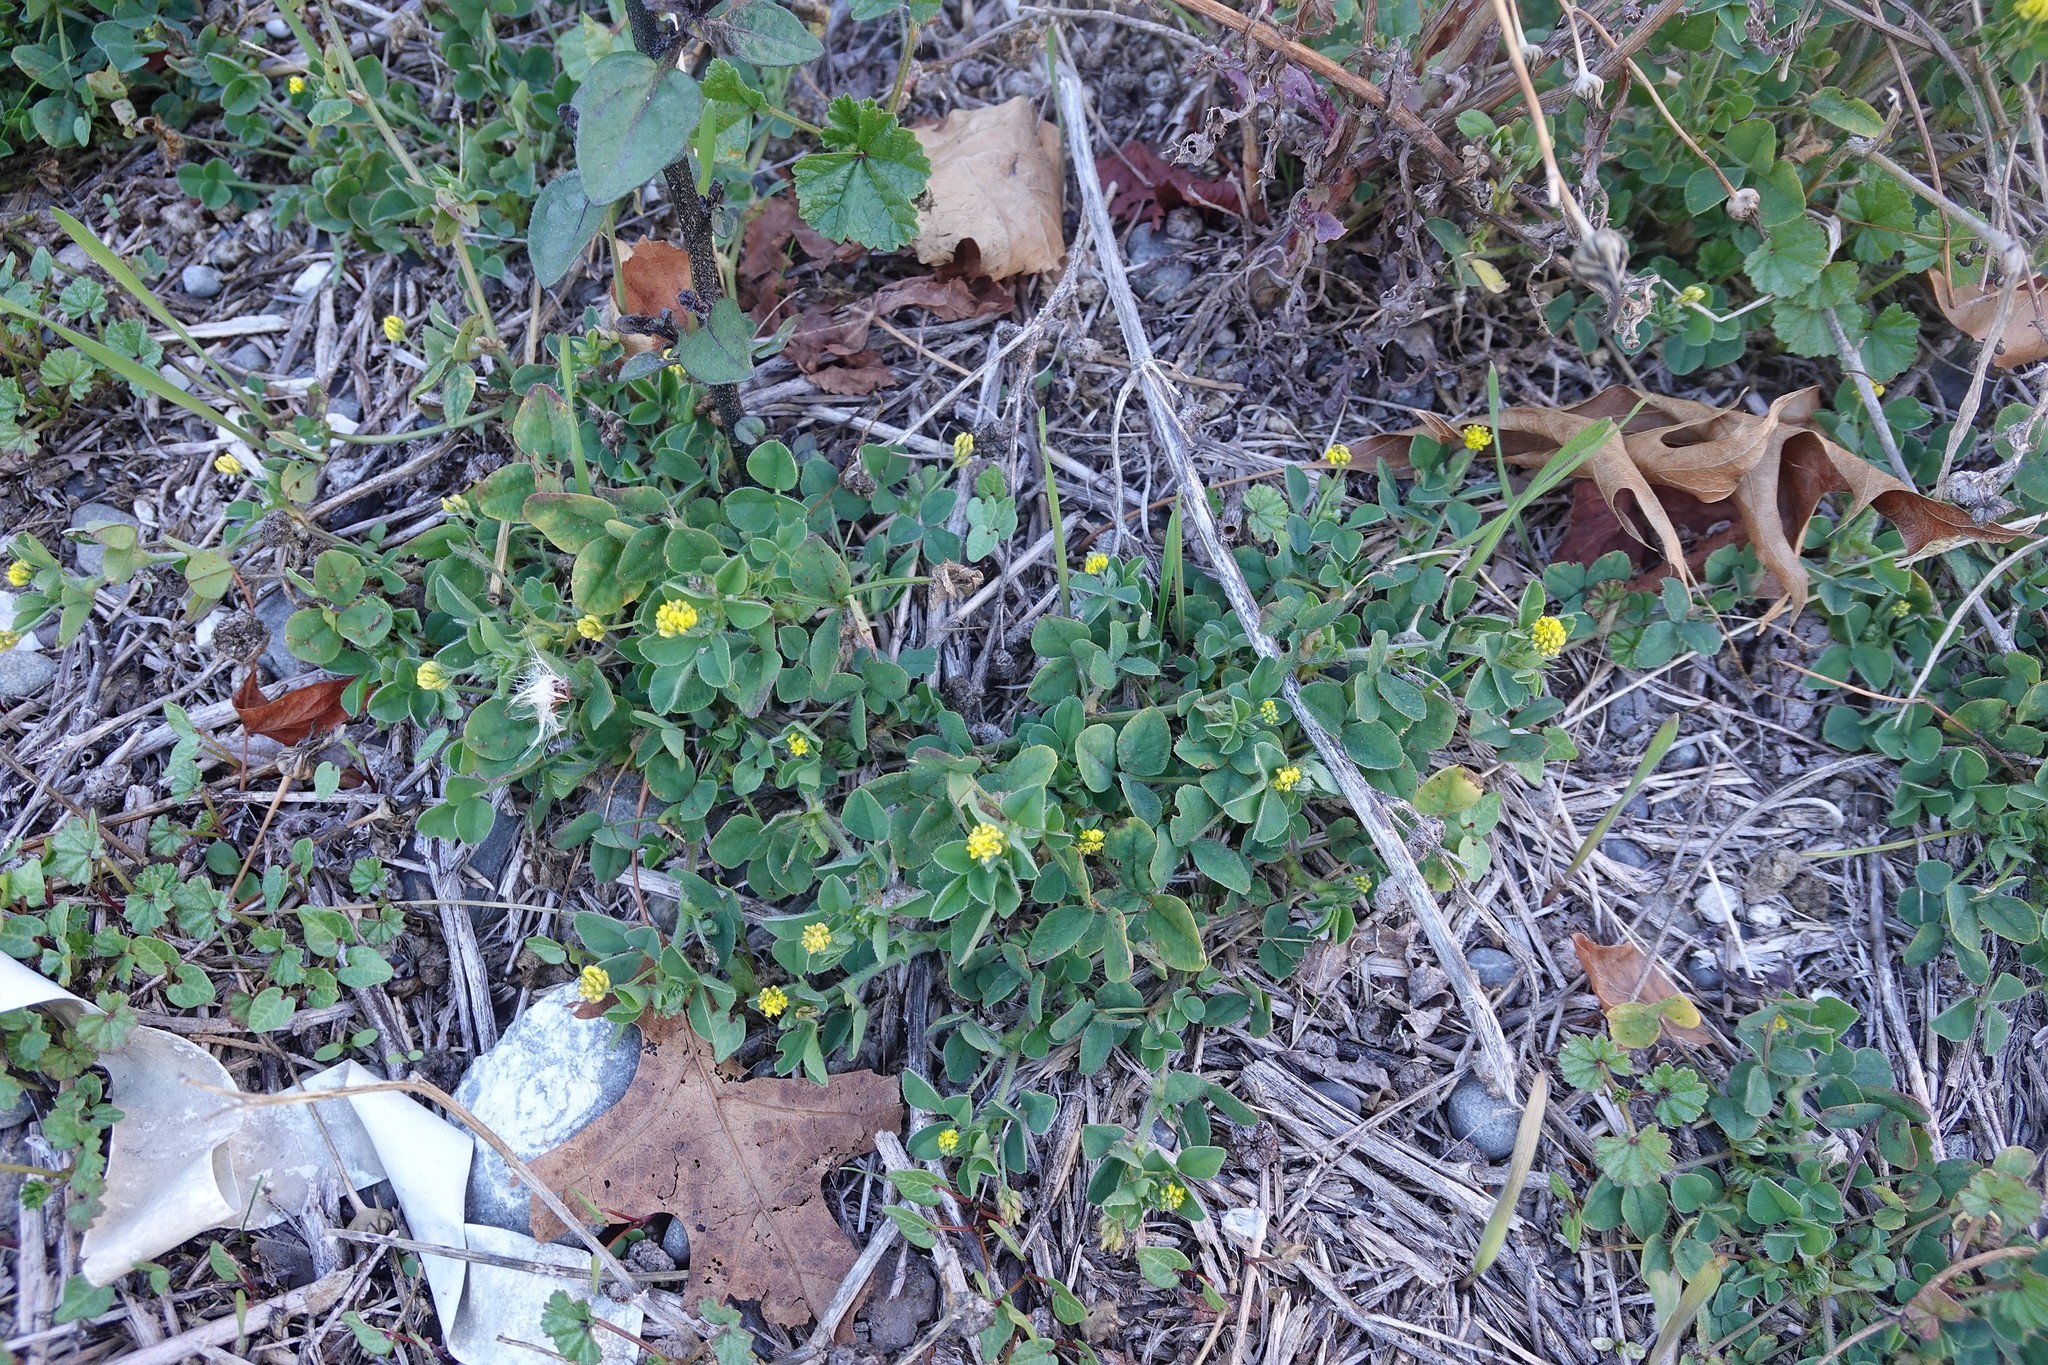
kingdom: Plantae
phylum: Tracheophyta
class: Magnoliopsida
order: Fabales
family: Fabaceae
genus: Medicago
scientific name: Medicago lupulina
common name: Black medick
